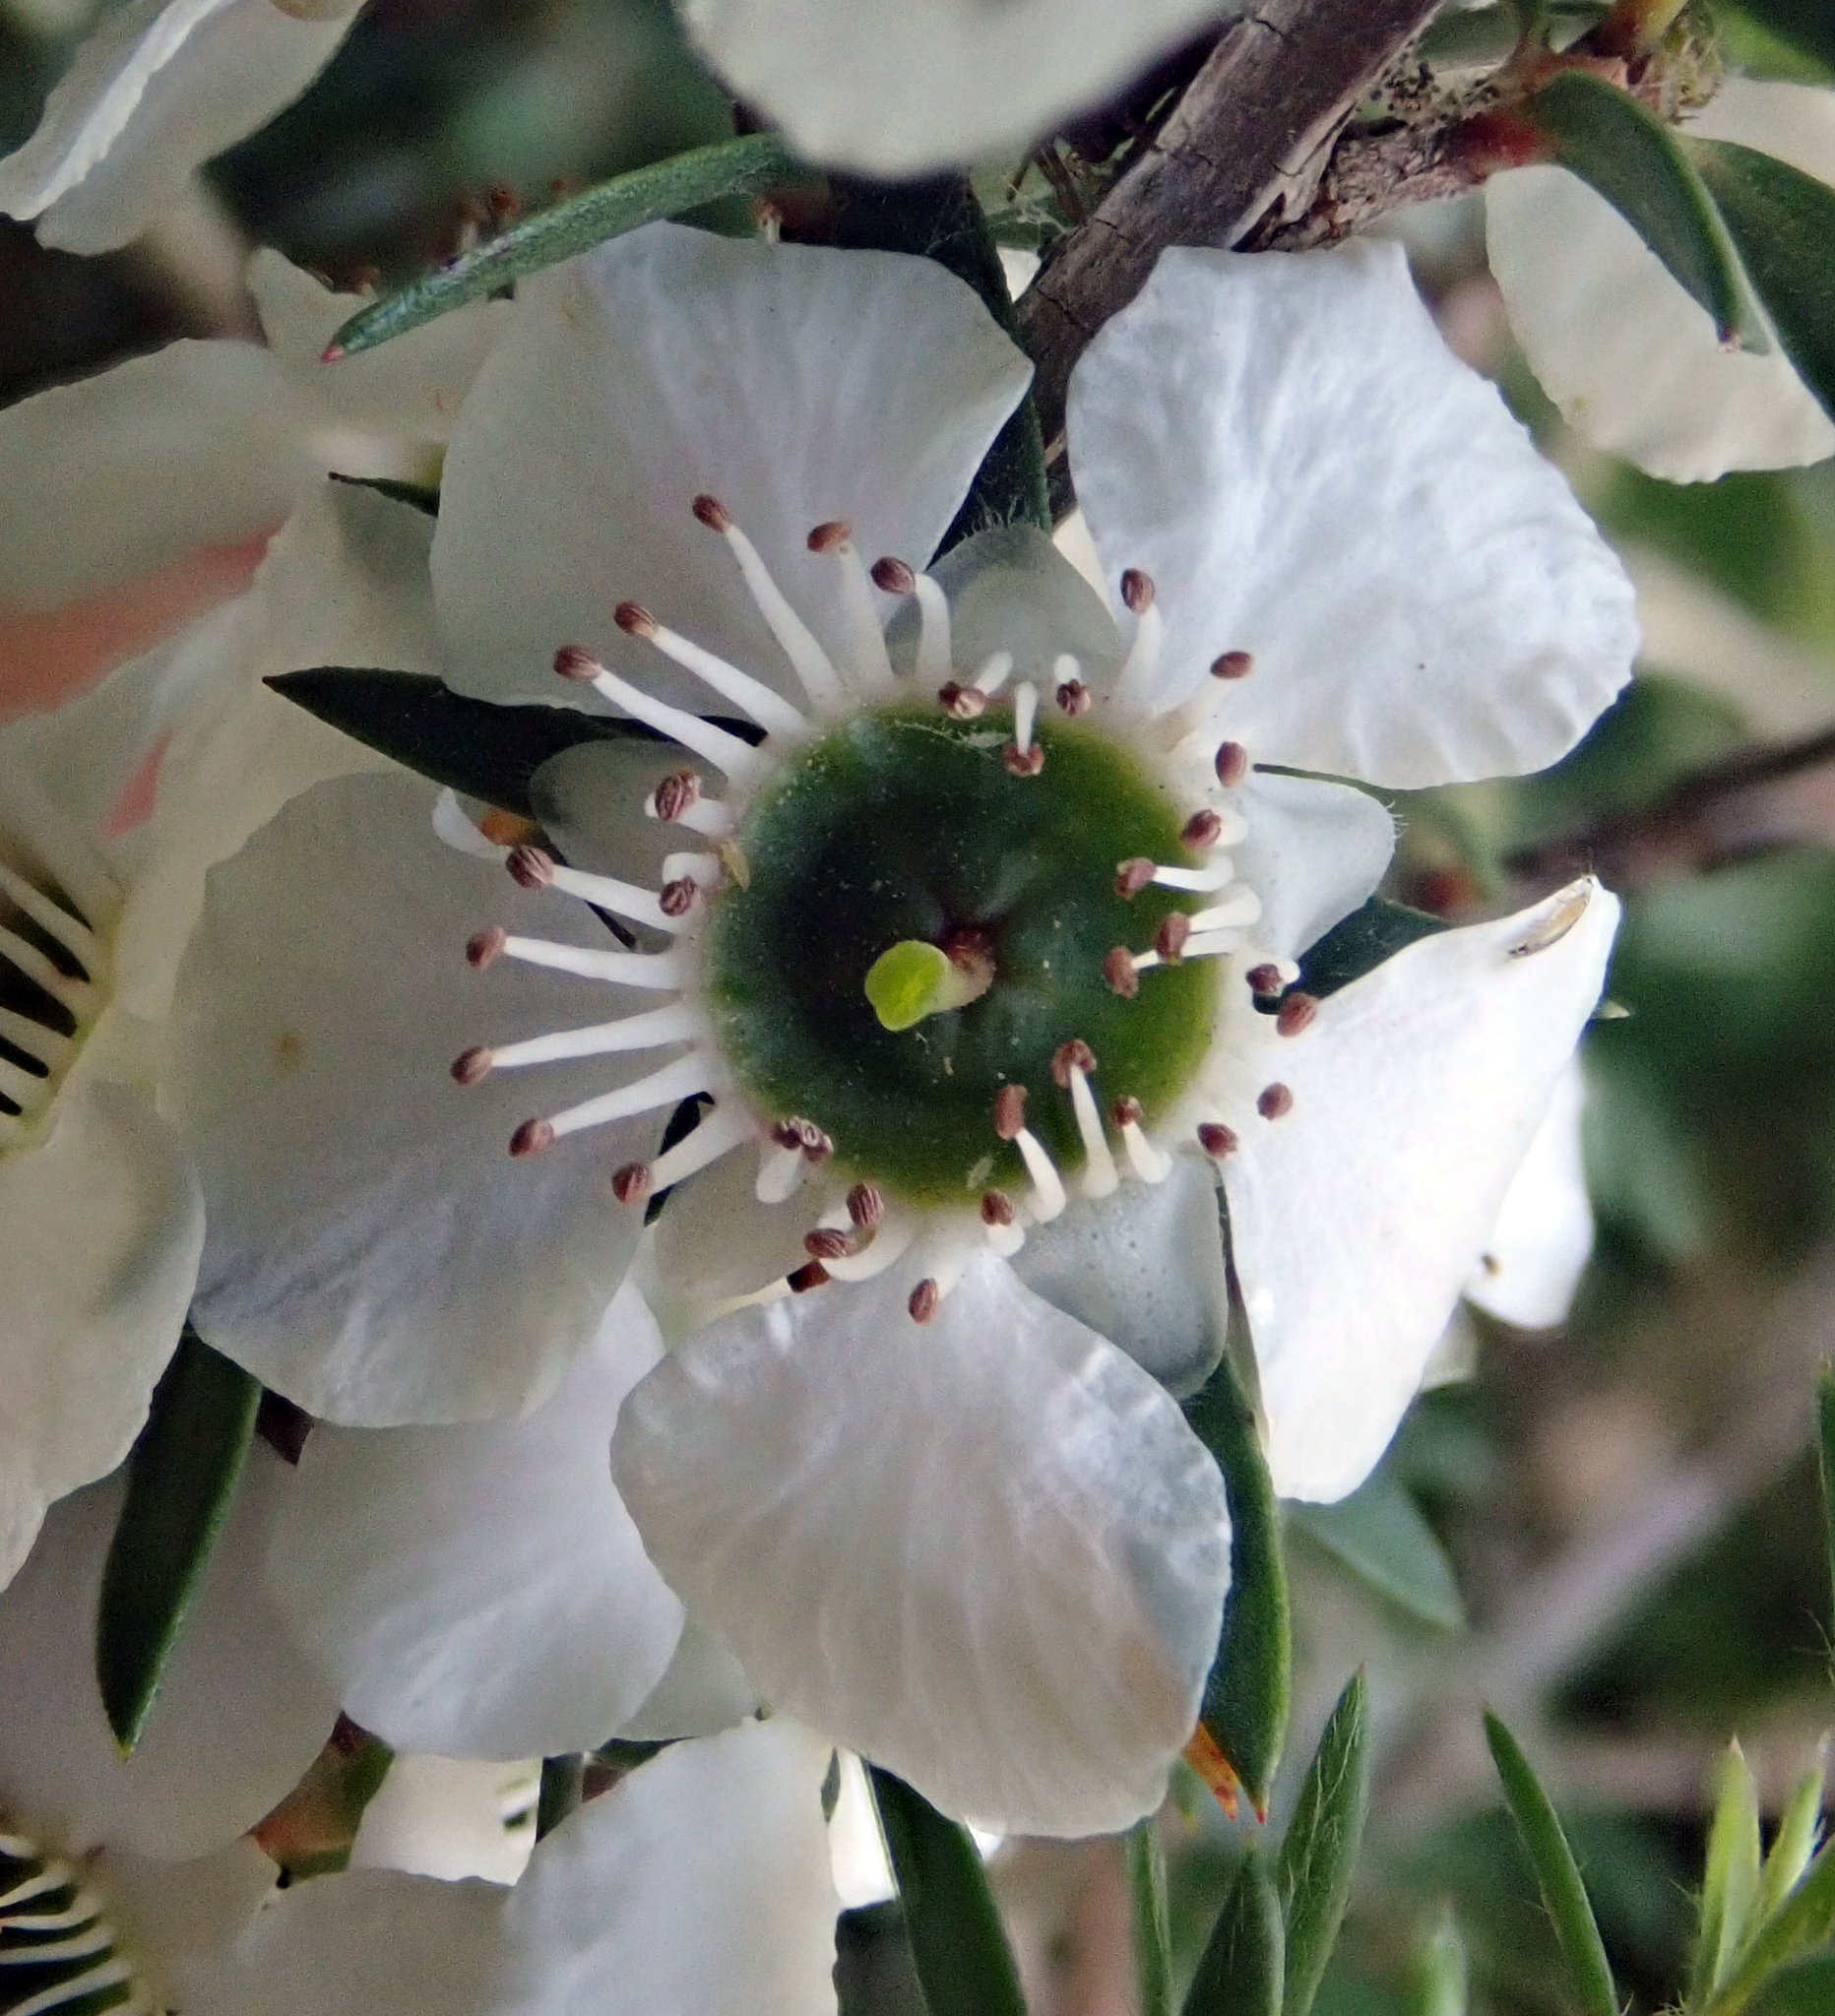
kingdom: Plantae
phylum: Tracheophyta
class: Magnoliopsida
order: Myrtales
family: Myrtaceae
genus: Leptospermum
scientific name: Leptospermum scoparium
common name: Broom tea-tree
